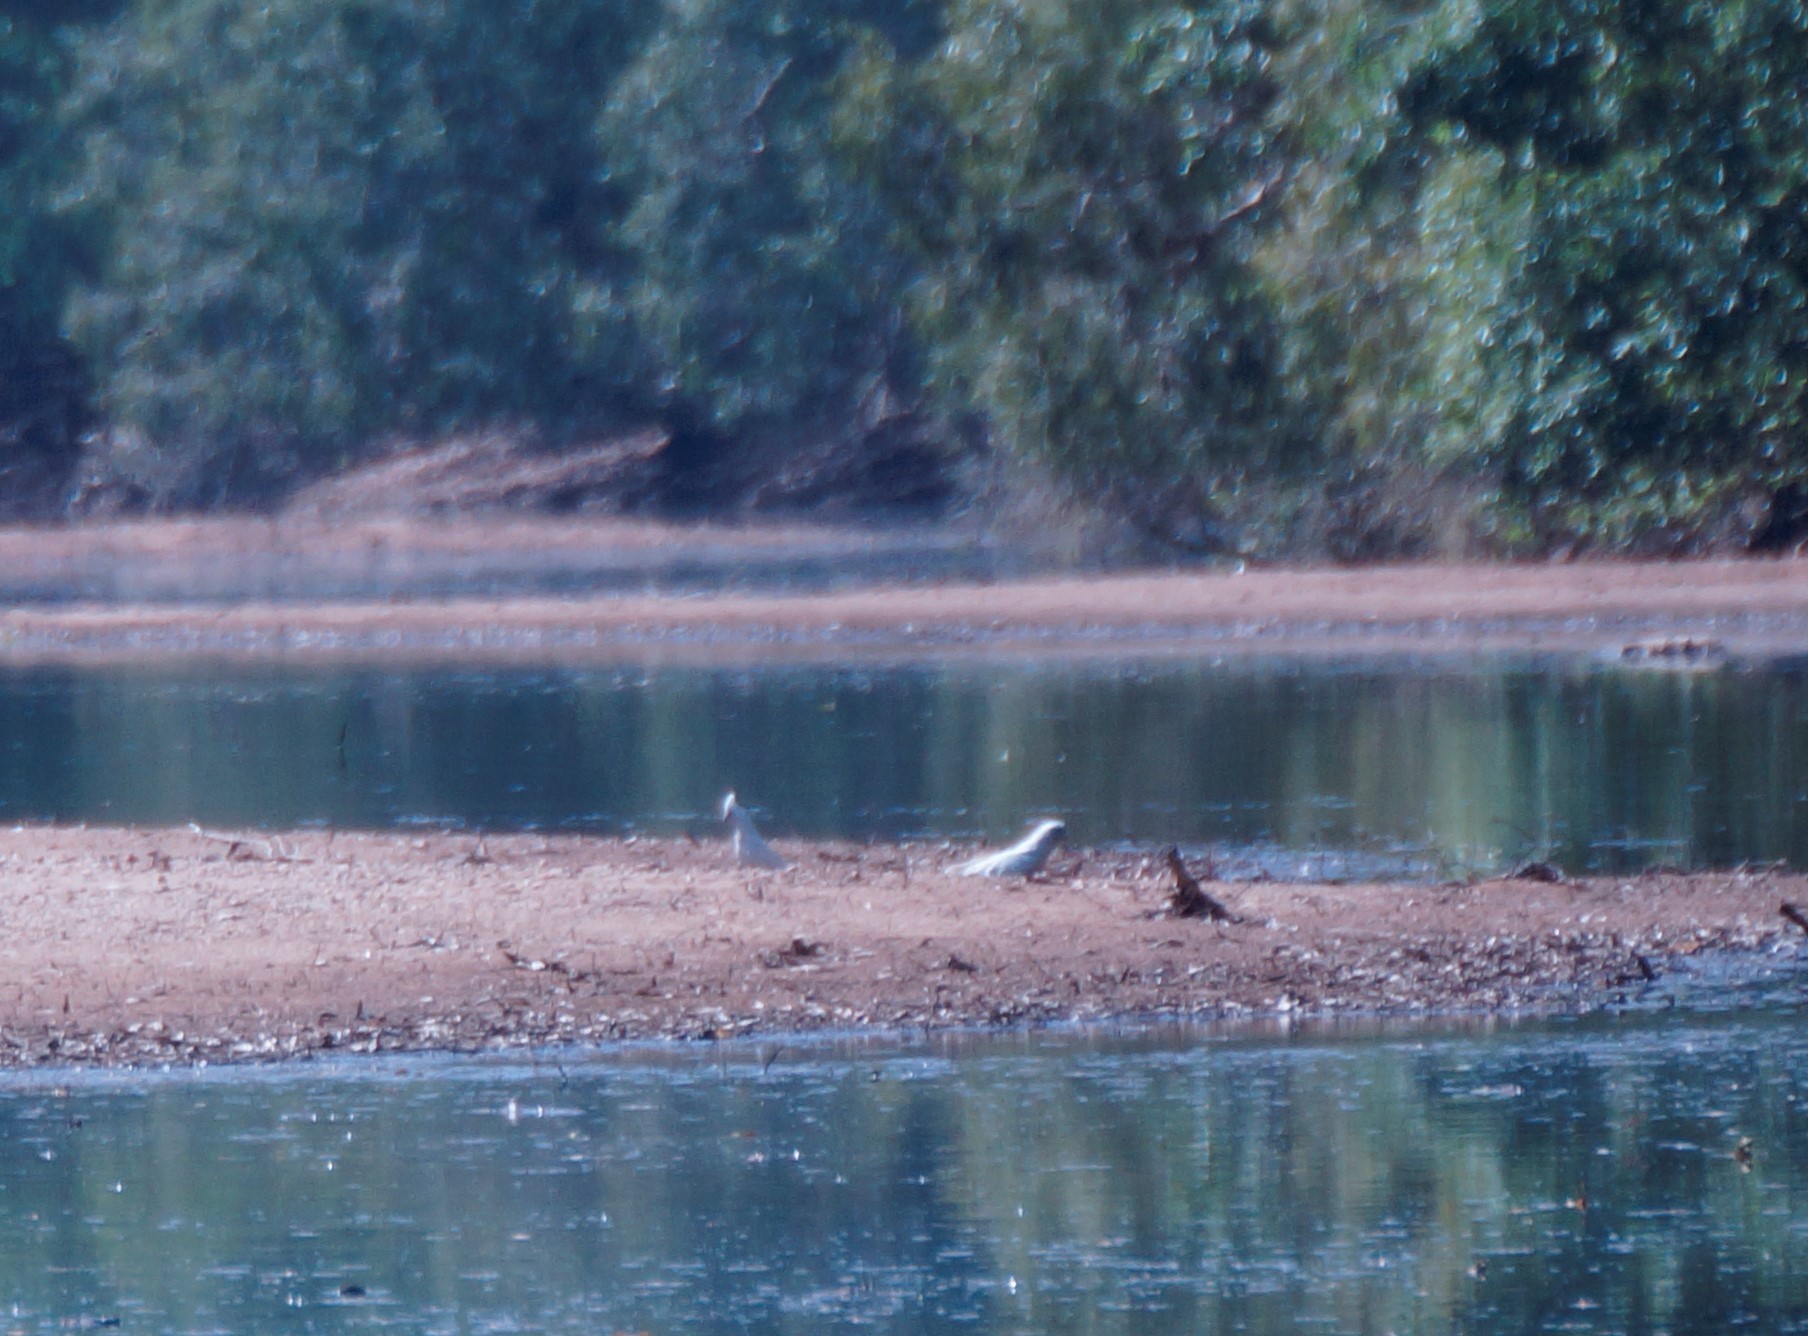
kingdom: Animalia
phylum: Chordata
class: Aves
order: Psittaciformes
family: Psittacidae
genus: Cacatua
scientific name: Cacatua sanguinea
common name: Little corella
